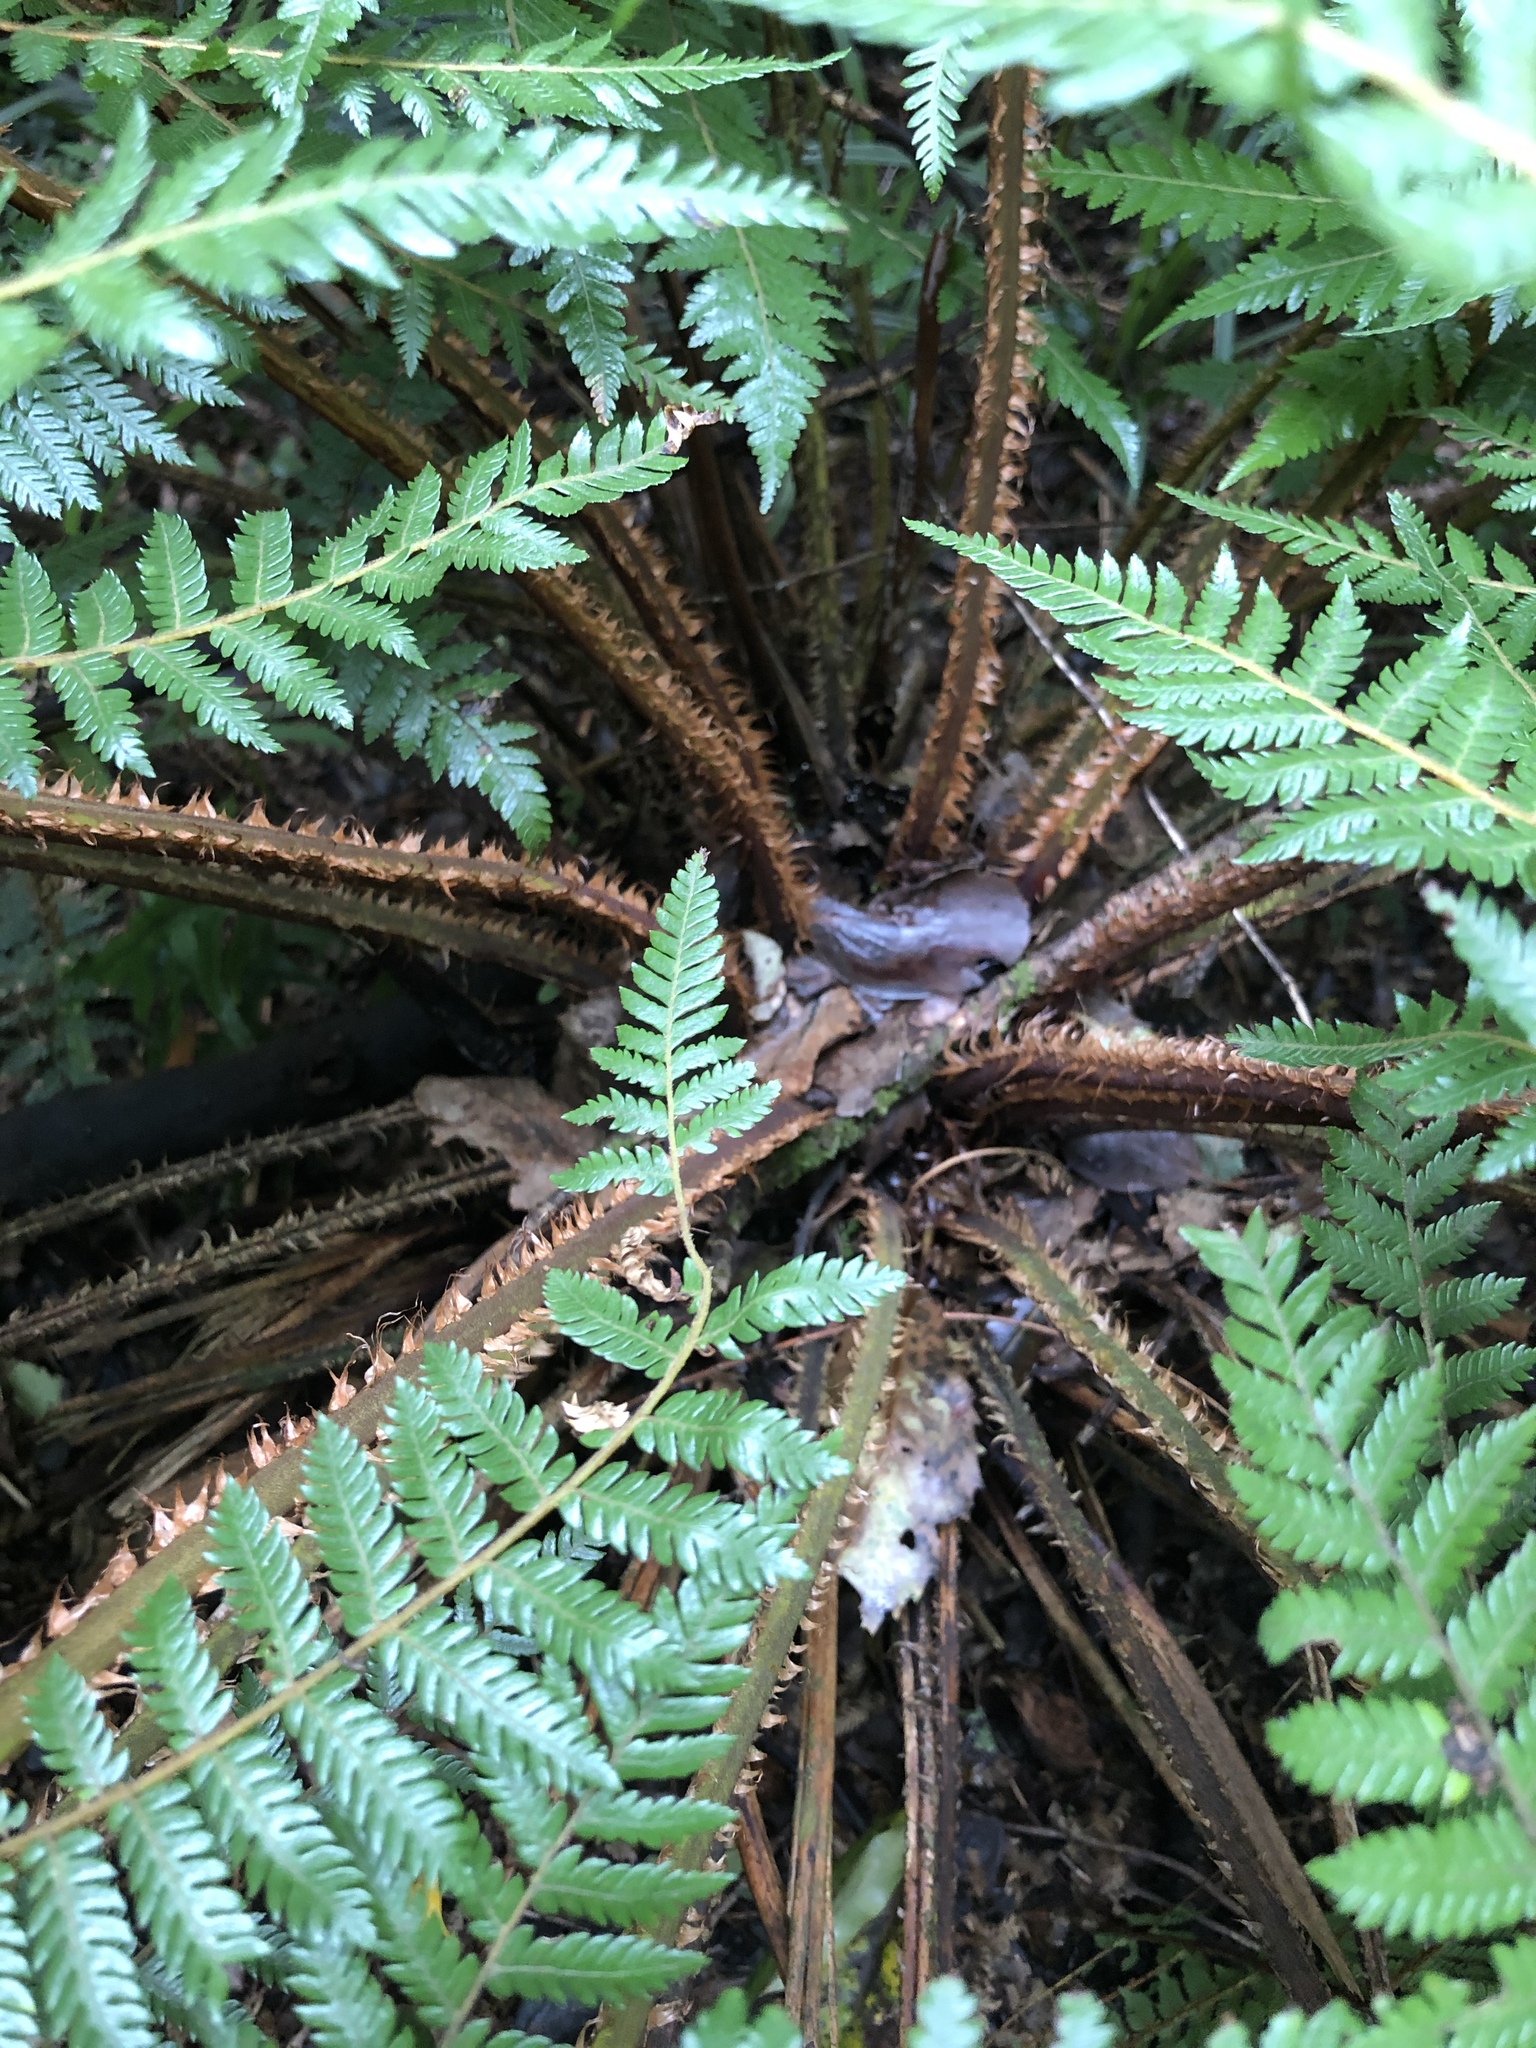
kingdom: Plantae
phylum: Tracheophyta
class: Polypodiopsida
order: Cyatheales
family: Cyatheaceae
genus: Alsophila
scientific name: Alsophila smithii
